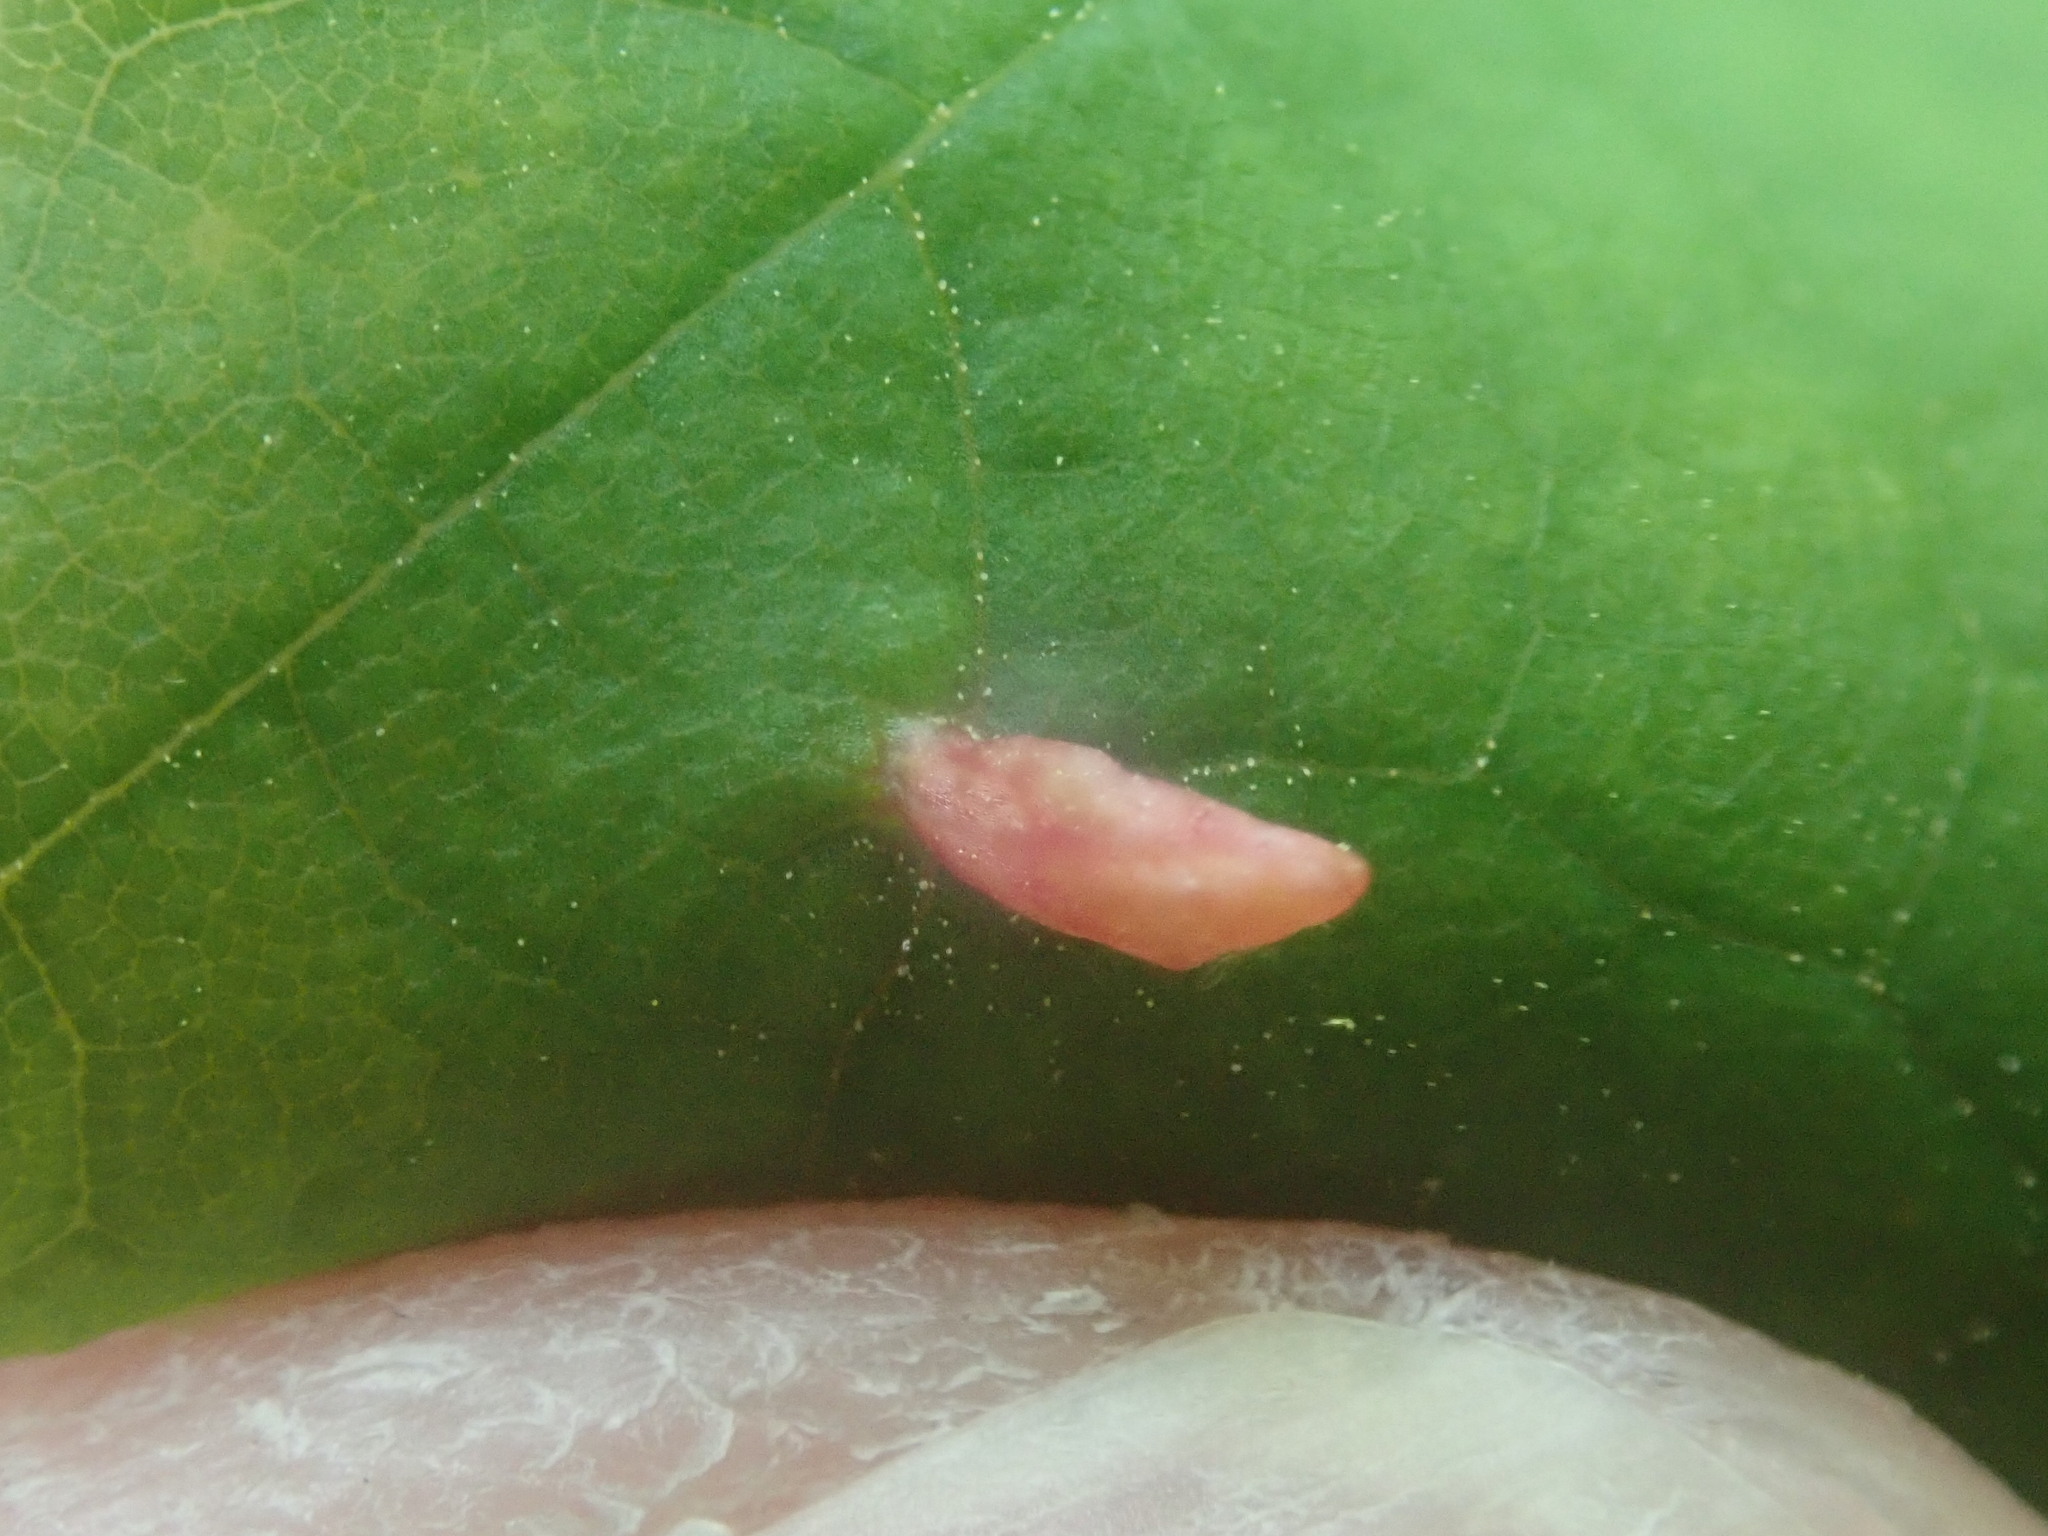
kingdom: Animalia
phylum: Arthropoda
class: Arachnida
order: Trombidiformes
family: Eriophyidae
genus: Vasates
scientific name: Vasates aceriscrumena
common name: Maple spindle gall mite
